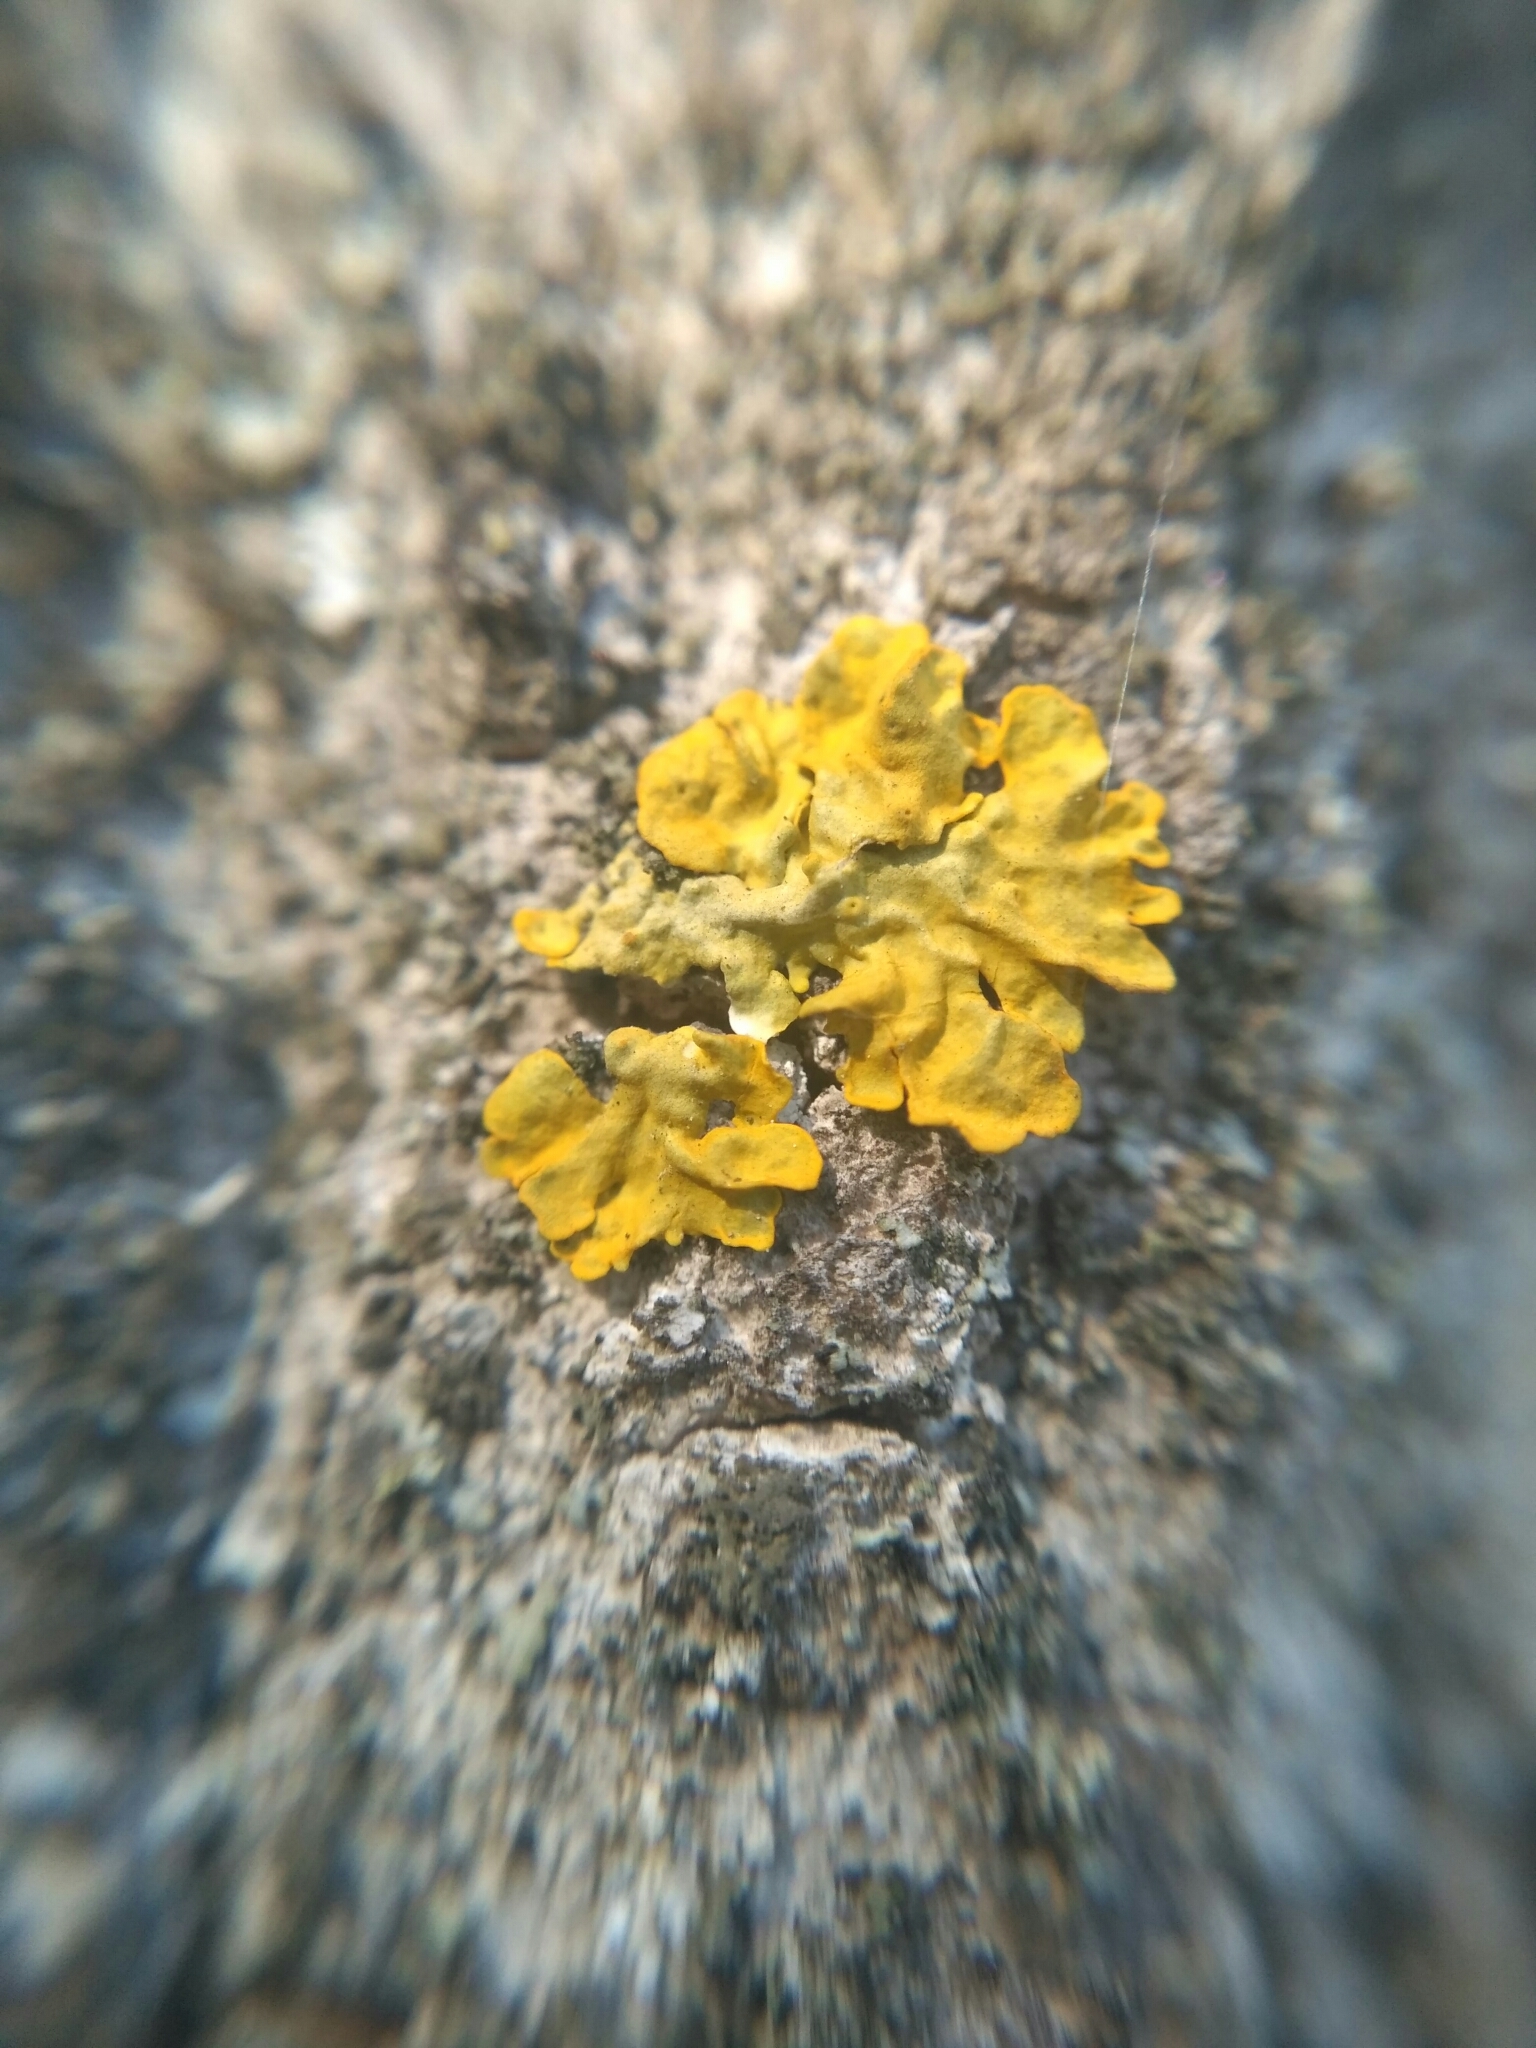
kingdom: Fungi
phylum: Ascomycota
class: Lecanoromycetes
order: Teloschistales
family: Teloschistaceae
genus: Xanthoria
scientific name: Xanthoria parietina
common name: Common orange lichen
